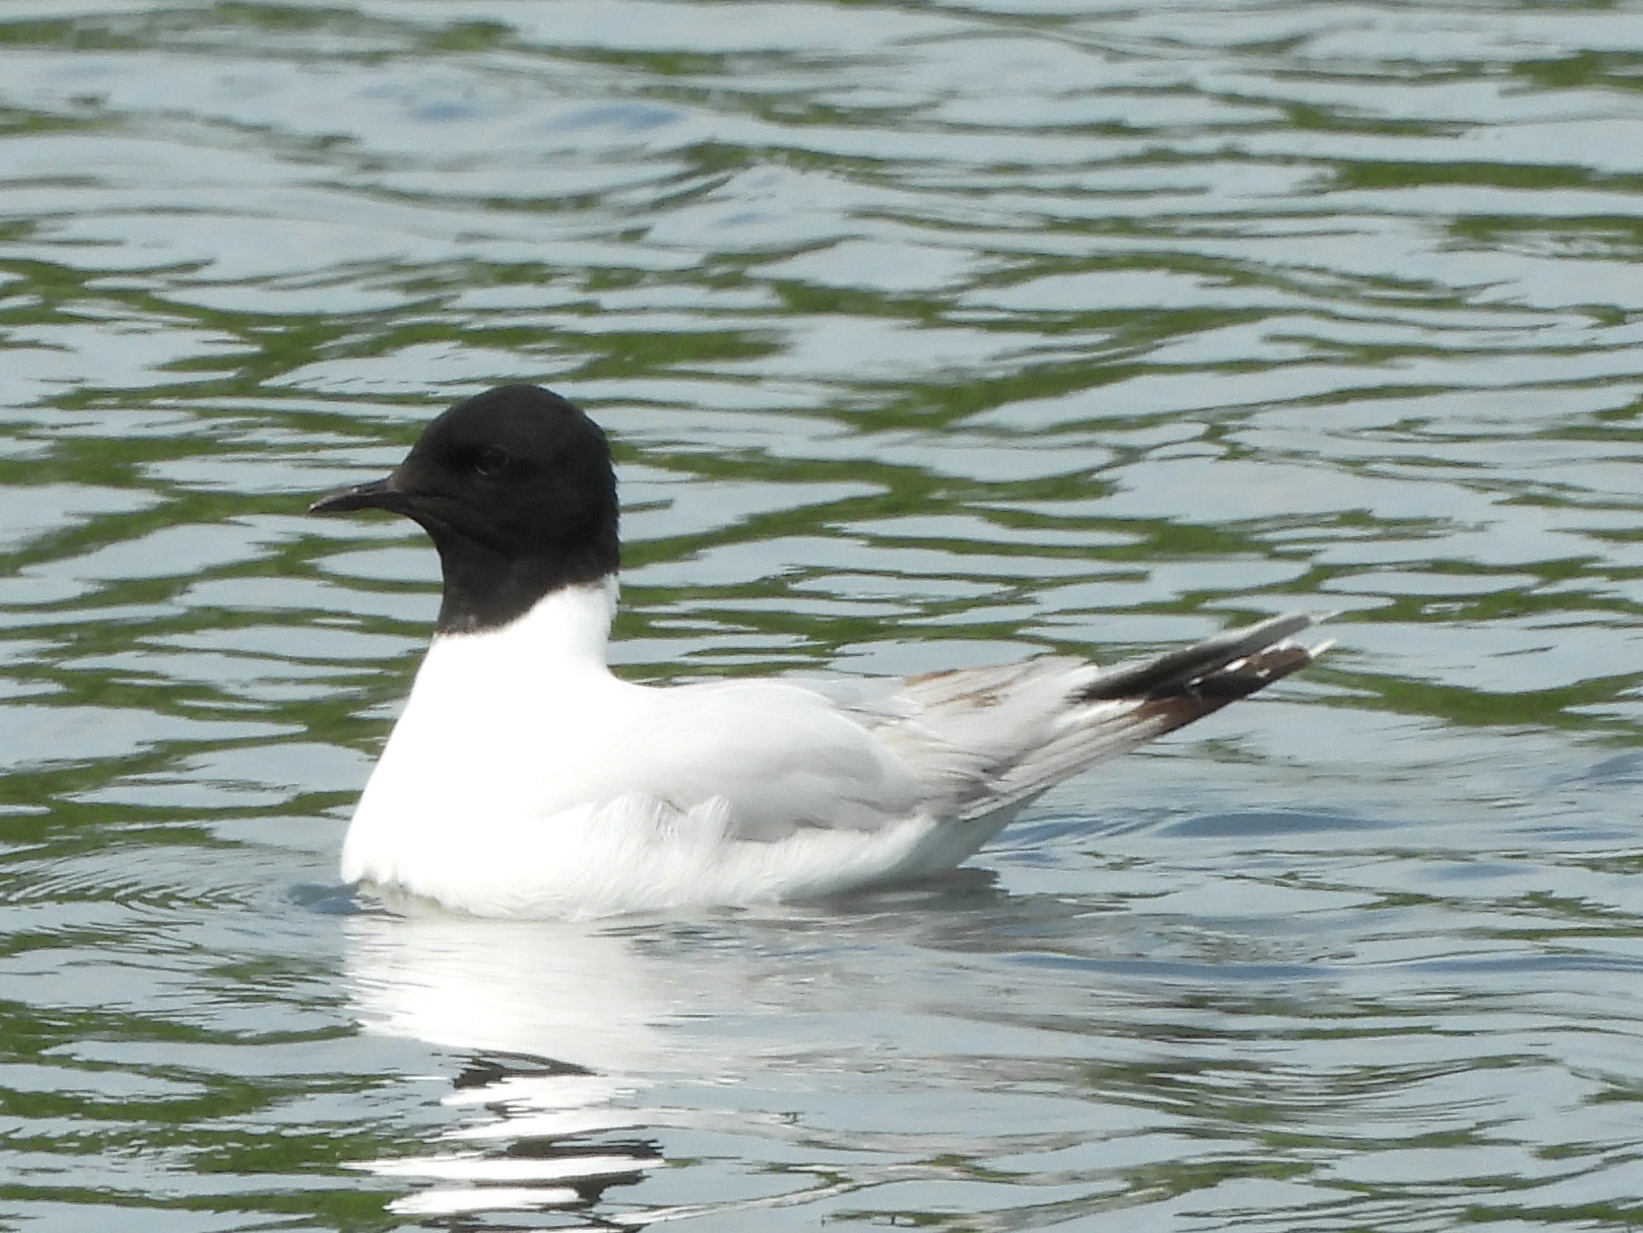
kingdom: Animalia
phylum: Chordata
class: Aves
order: Charadriiformes
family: Laridae
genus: Hydrocoloeus
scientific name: Hydrocoloeus minutus
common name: Little gull
